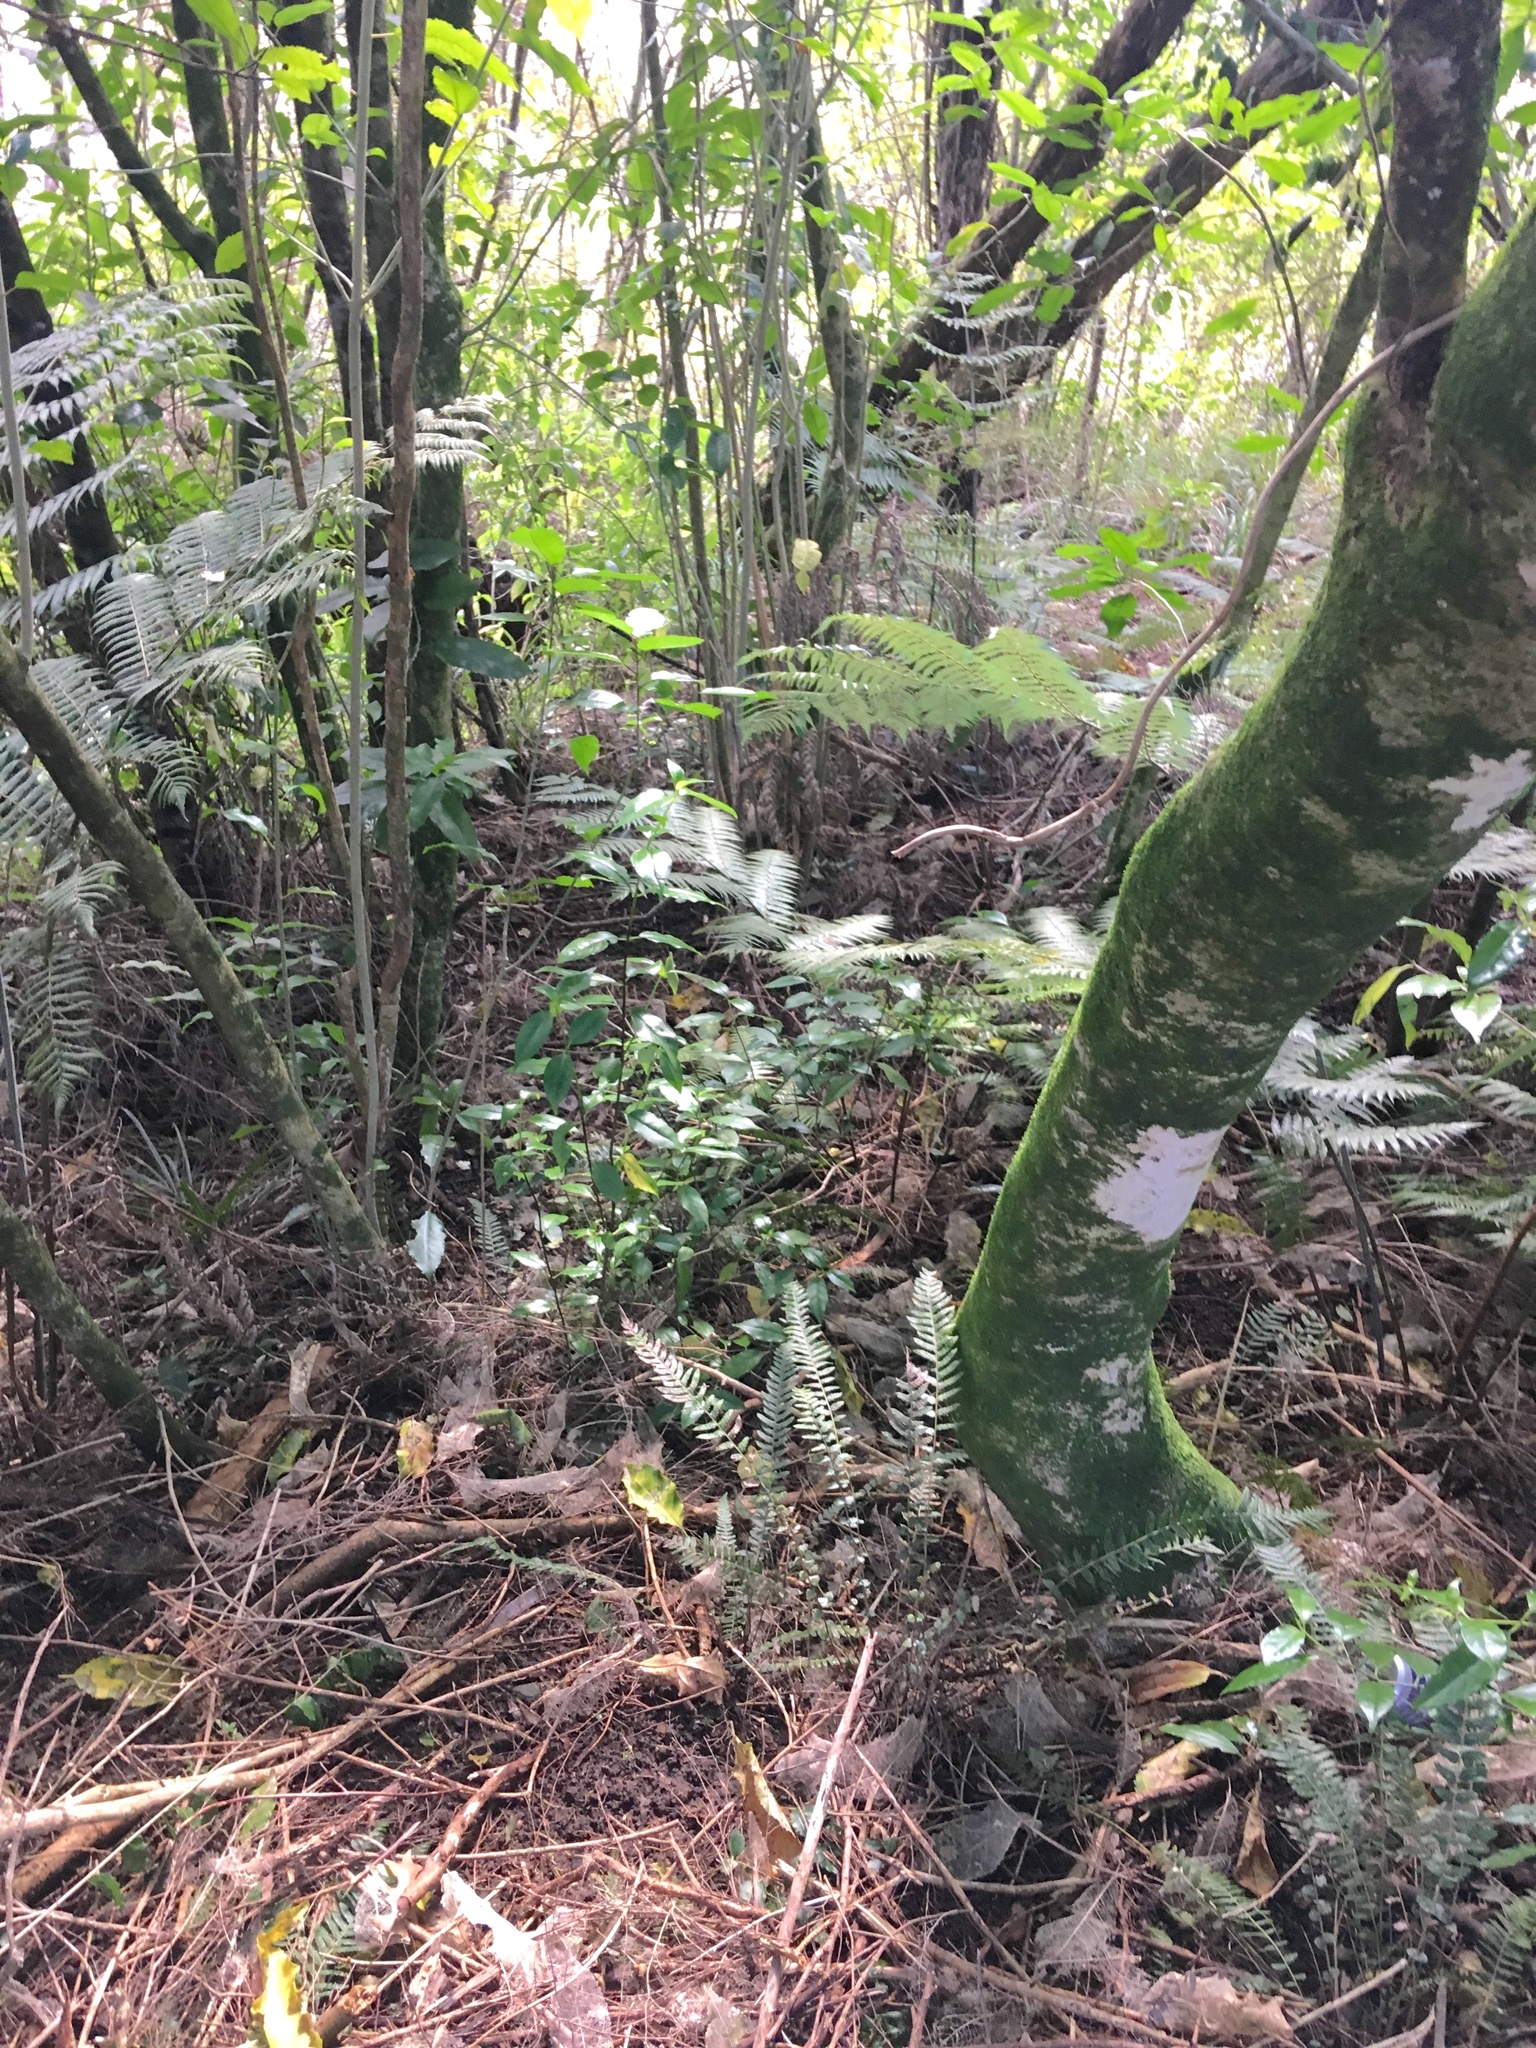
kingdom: Plantae
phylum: Tracheophyta
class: Magnoliopsida
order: Gentianales
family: Loganiaceae
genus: Geniostoma
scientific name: Geniostoma ligustrifolium
